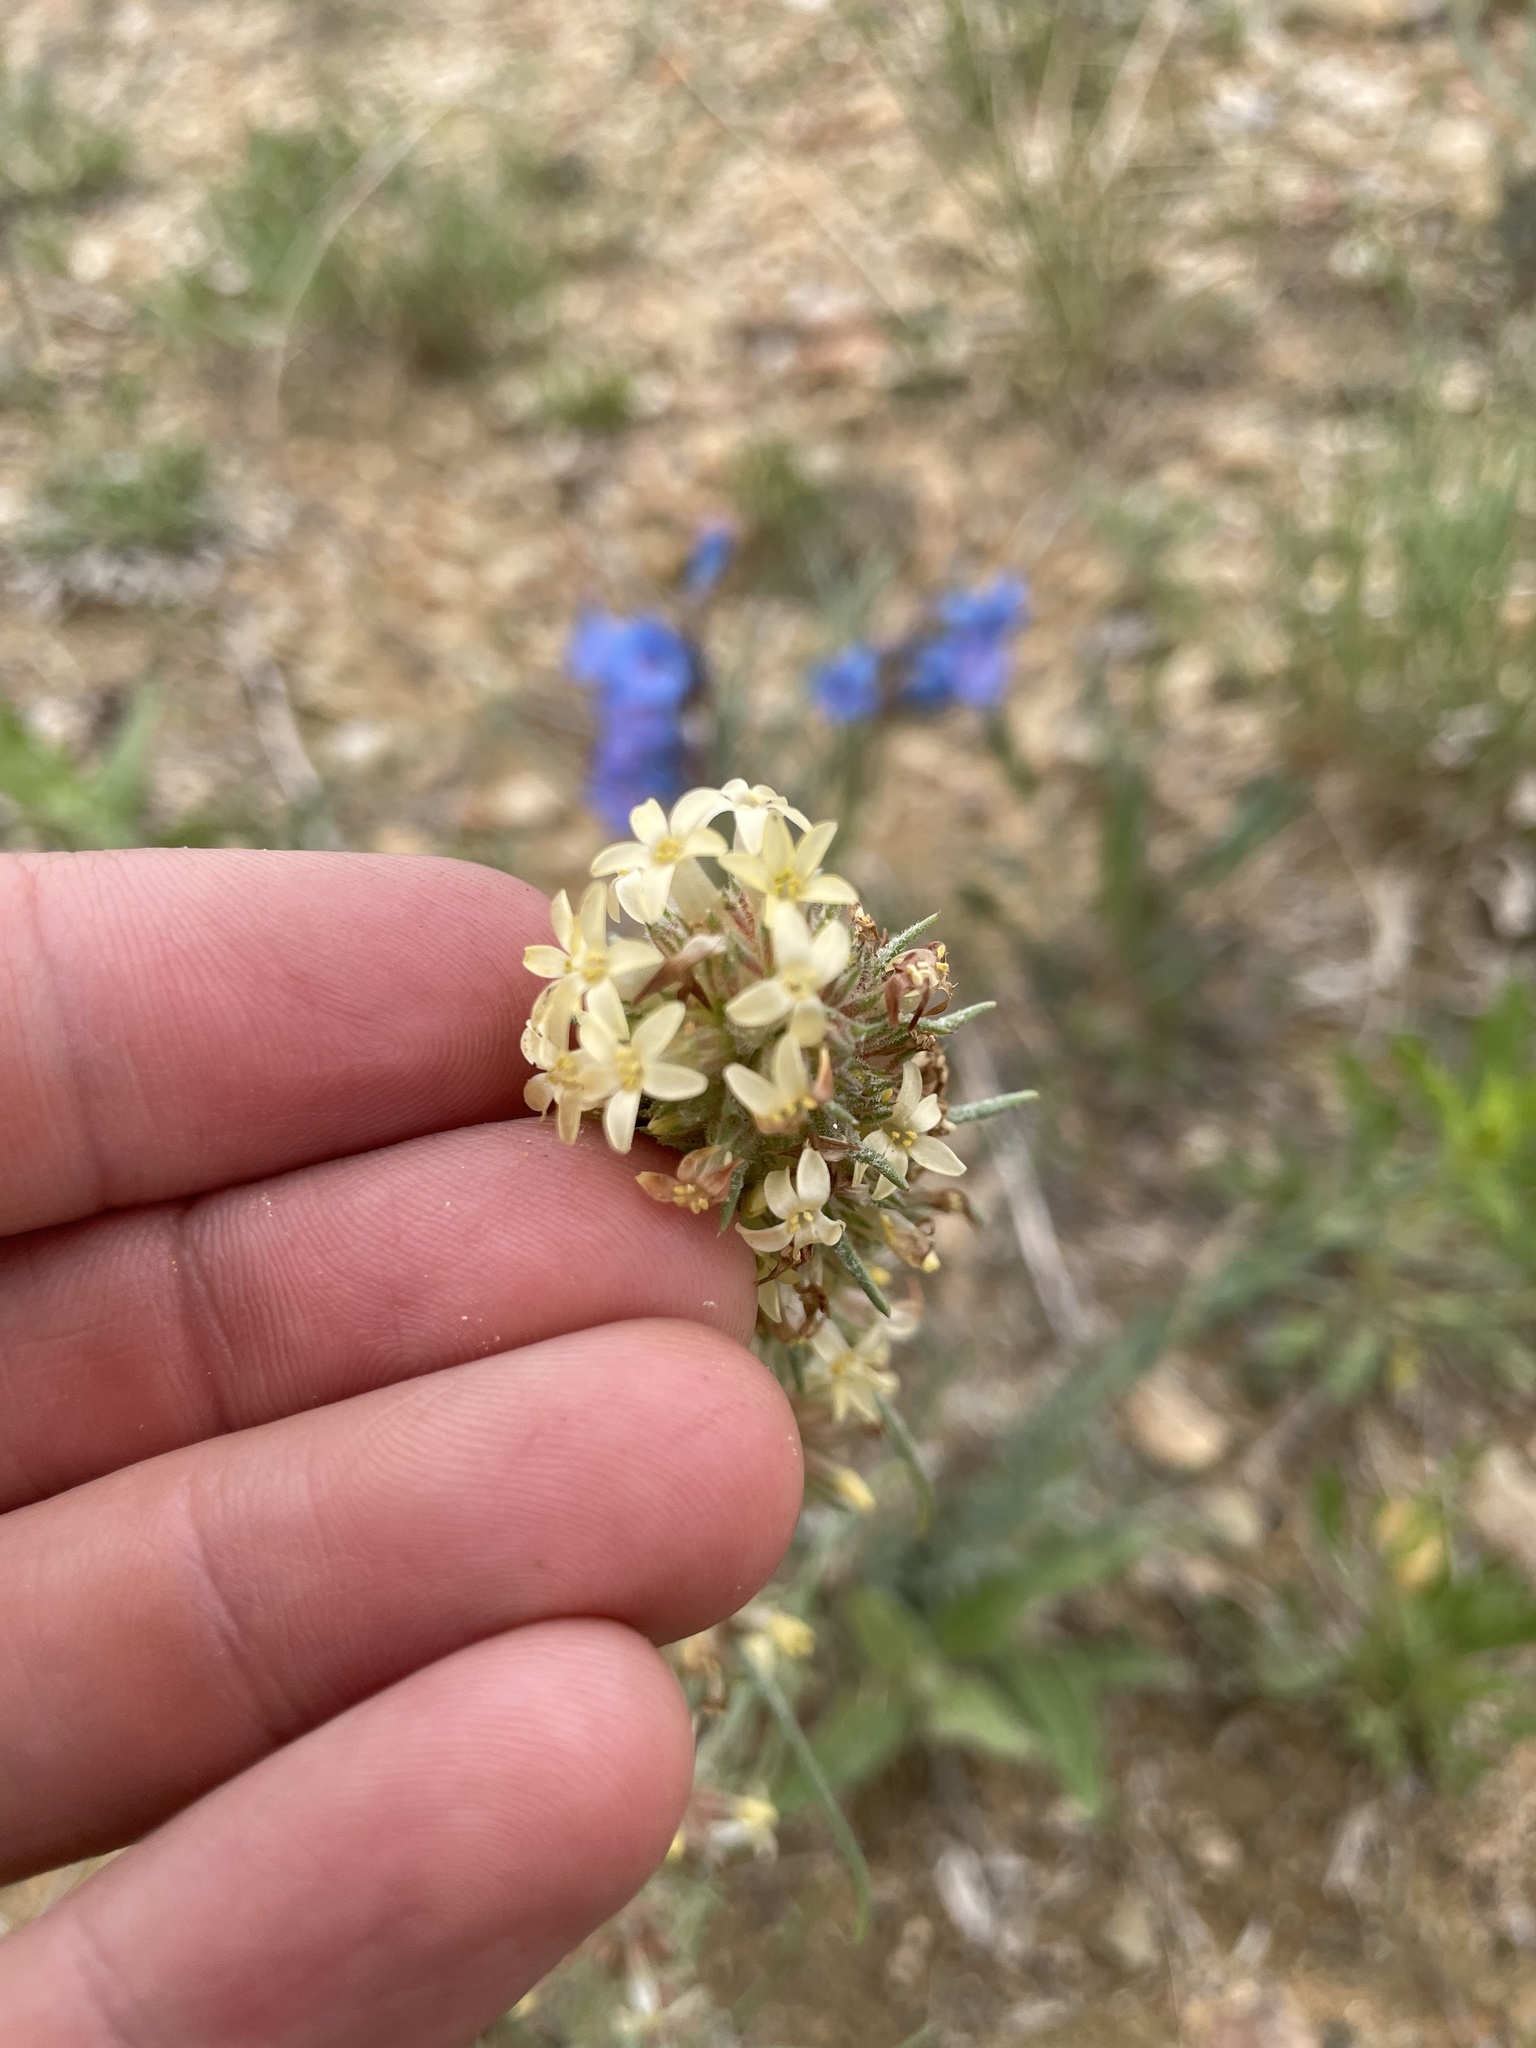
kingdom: Plantae
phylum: Tracheophyta
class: Magnoliopsida
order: Ericales
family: Polemoniaceae
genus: Ipomopsis
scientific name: Ipomopsis spicata
